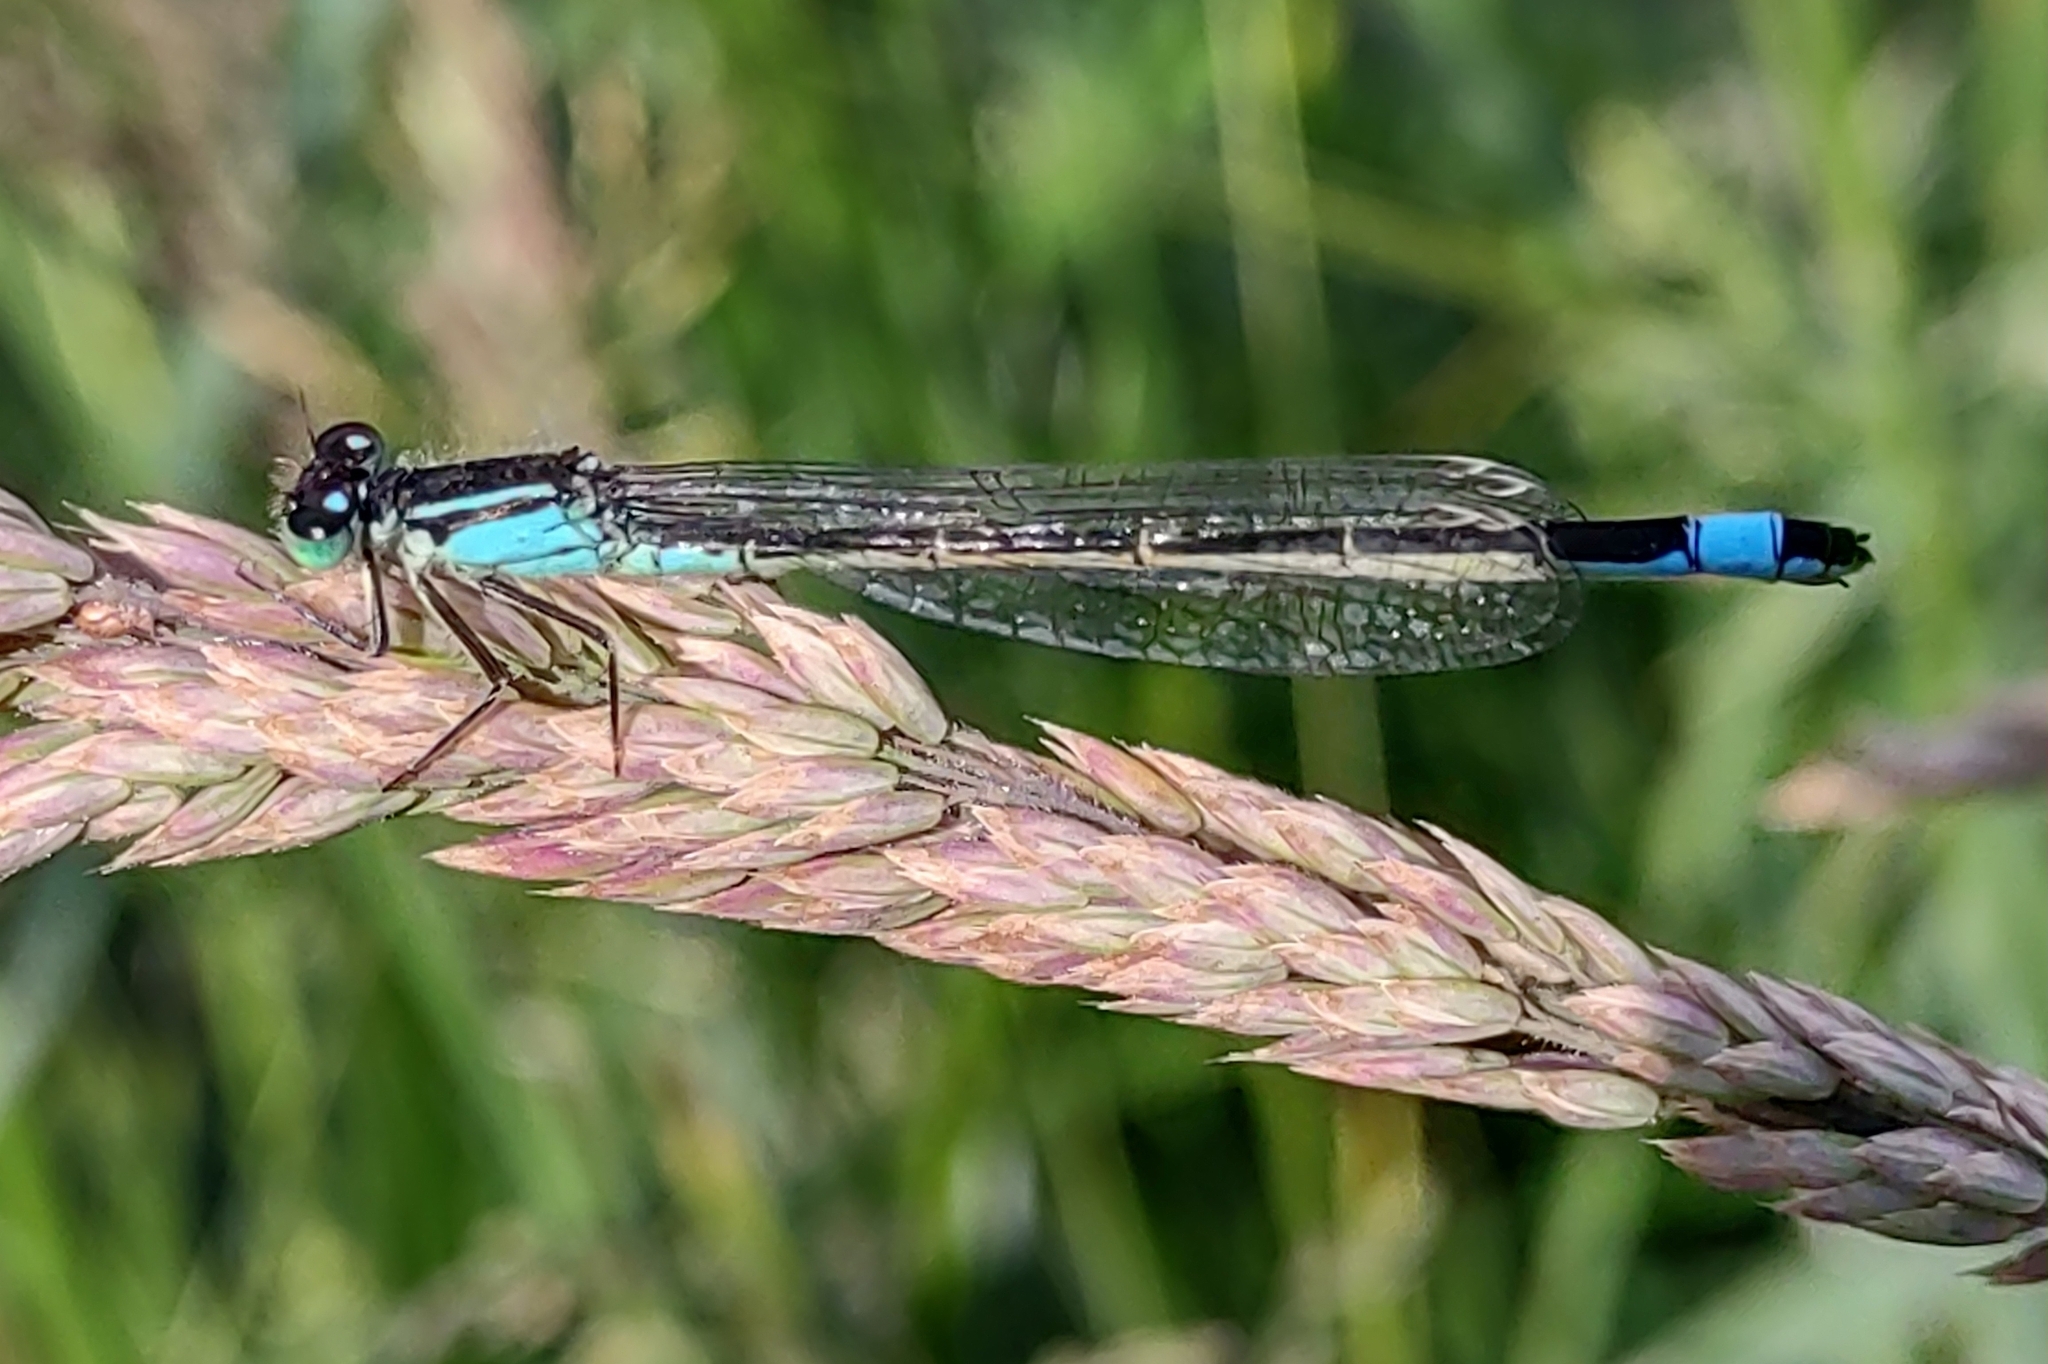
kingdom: Animalia
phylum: Arthropoda
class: Insecta
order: Odonata
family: Coenagrionidae
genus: Ischnura
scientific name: Ischnura elegans
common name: Blue-tailed damselfly
